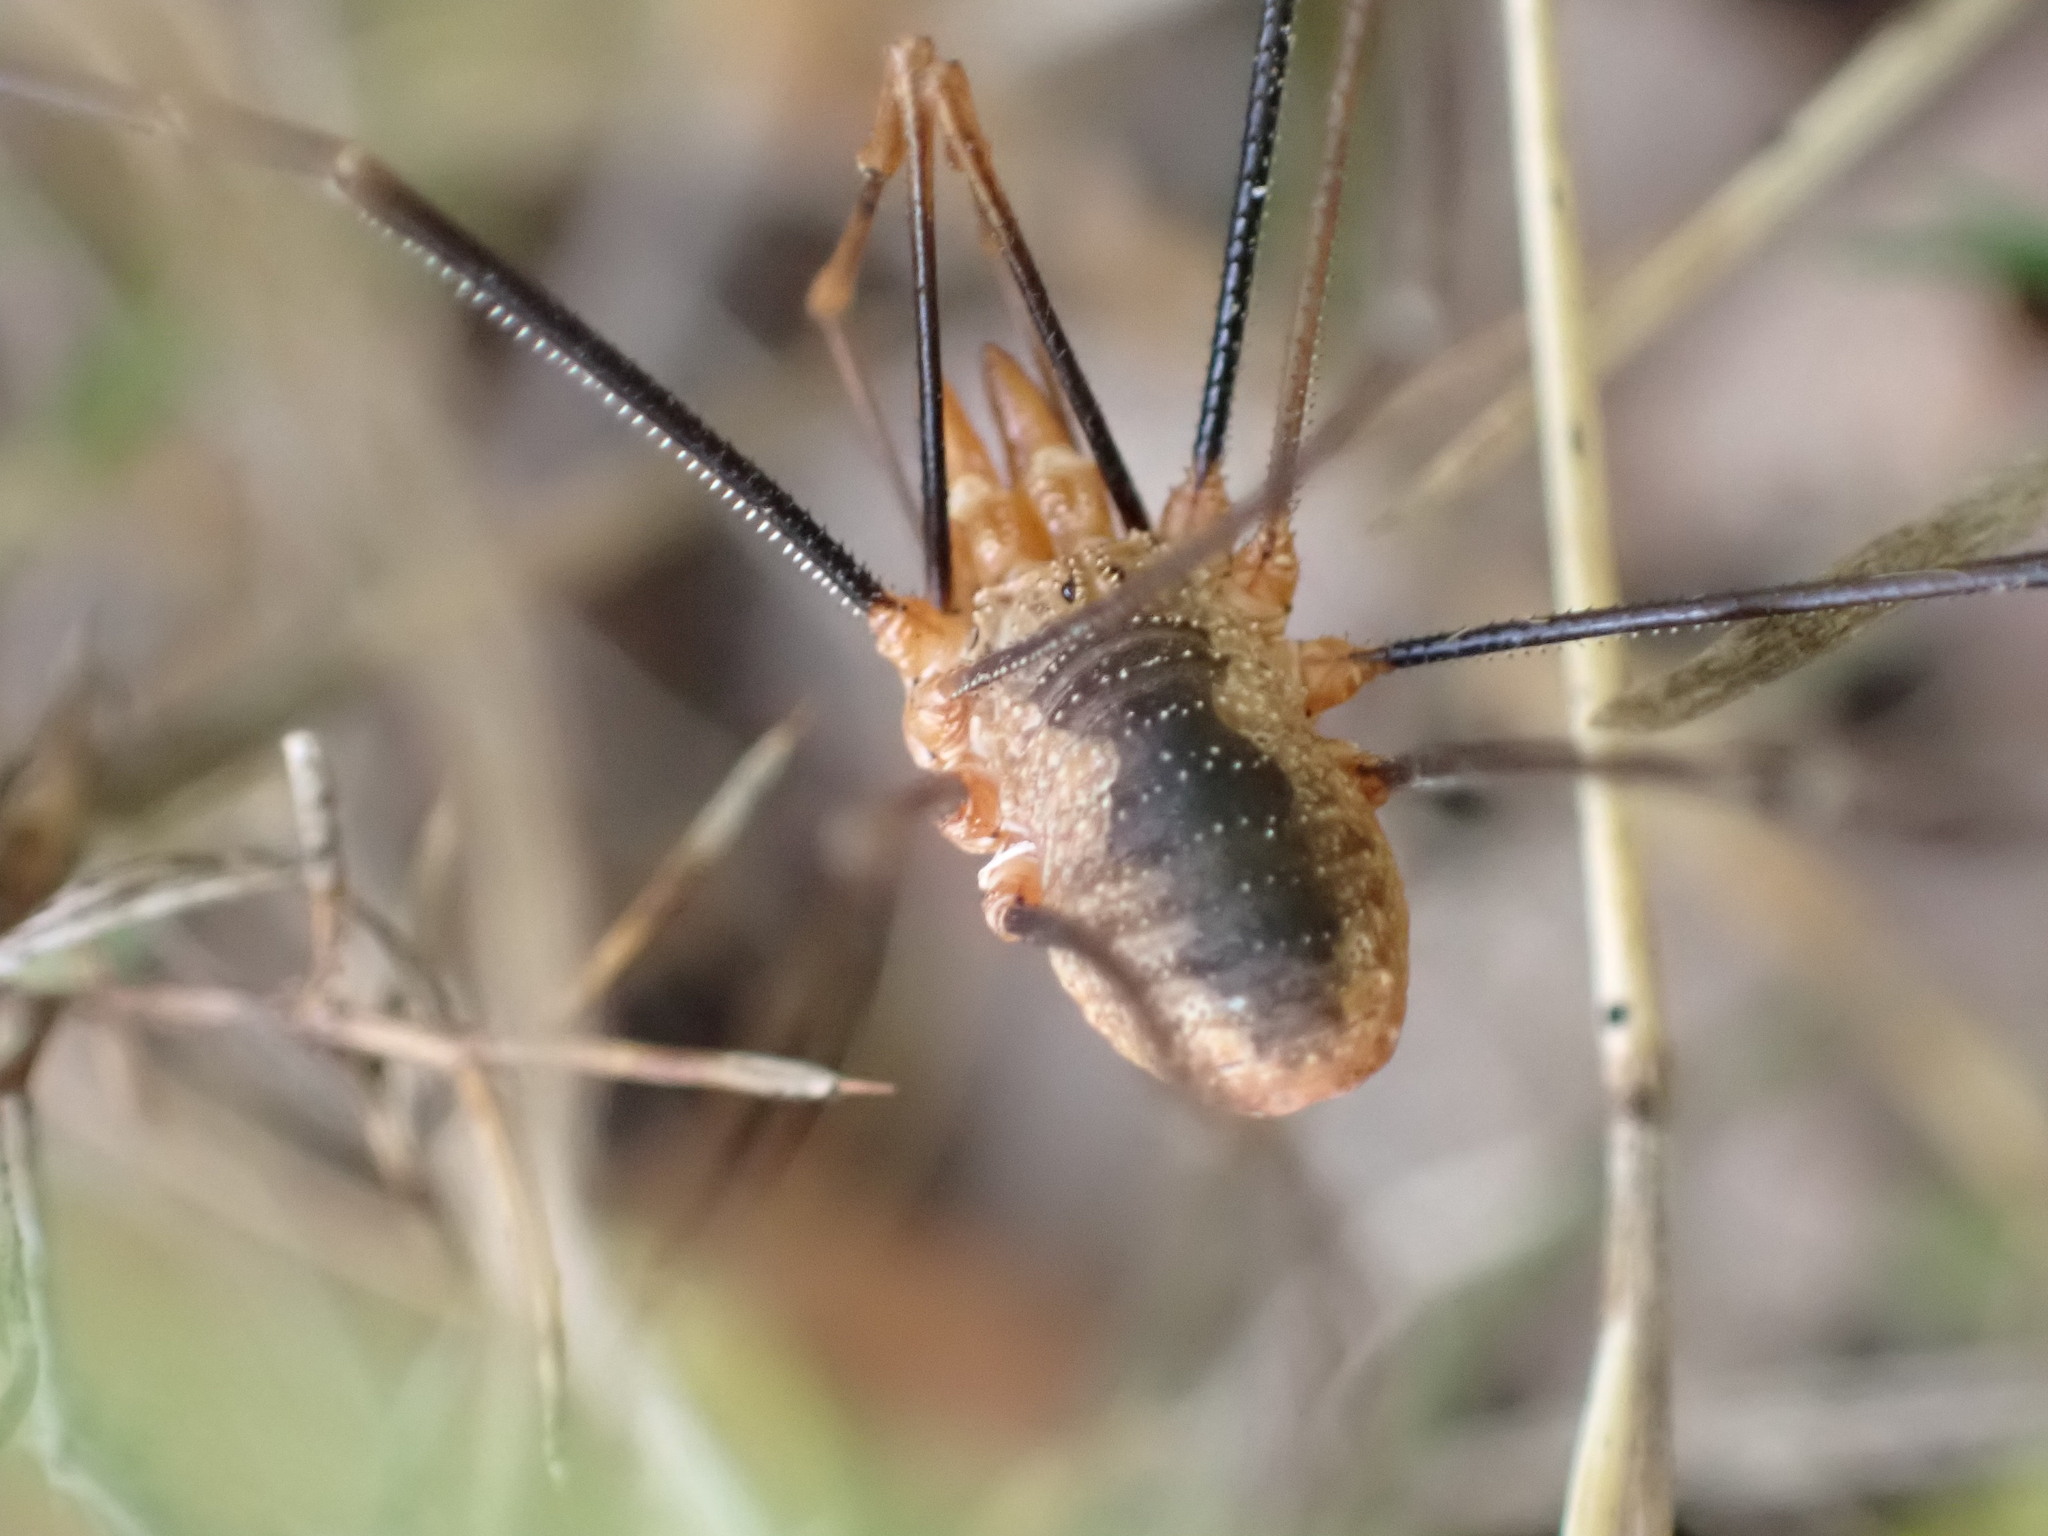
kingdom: Animalia
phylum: Arthropoda
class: Arachnida
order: Opiliones
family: Phalangiidae
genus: Phalangium
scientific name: Phalangium opilio
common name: Daddy longleg
